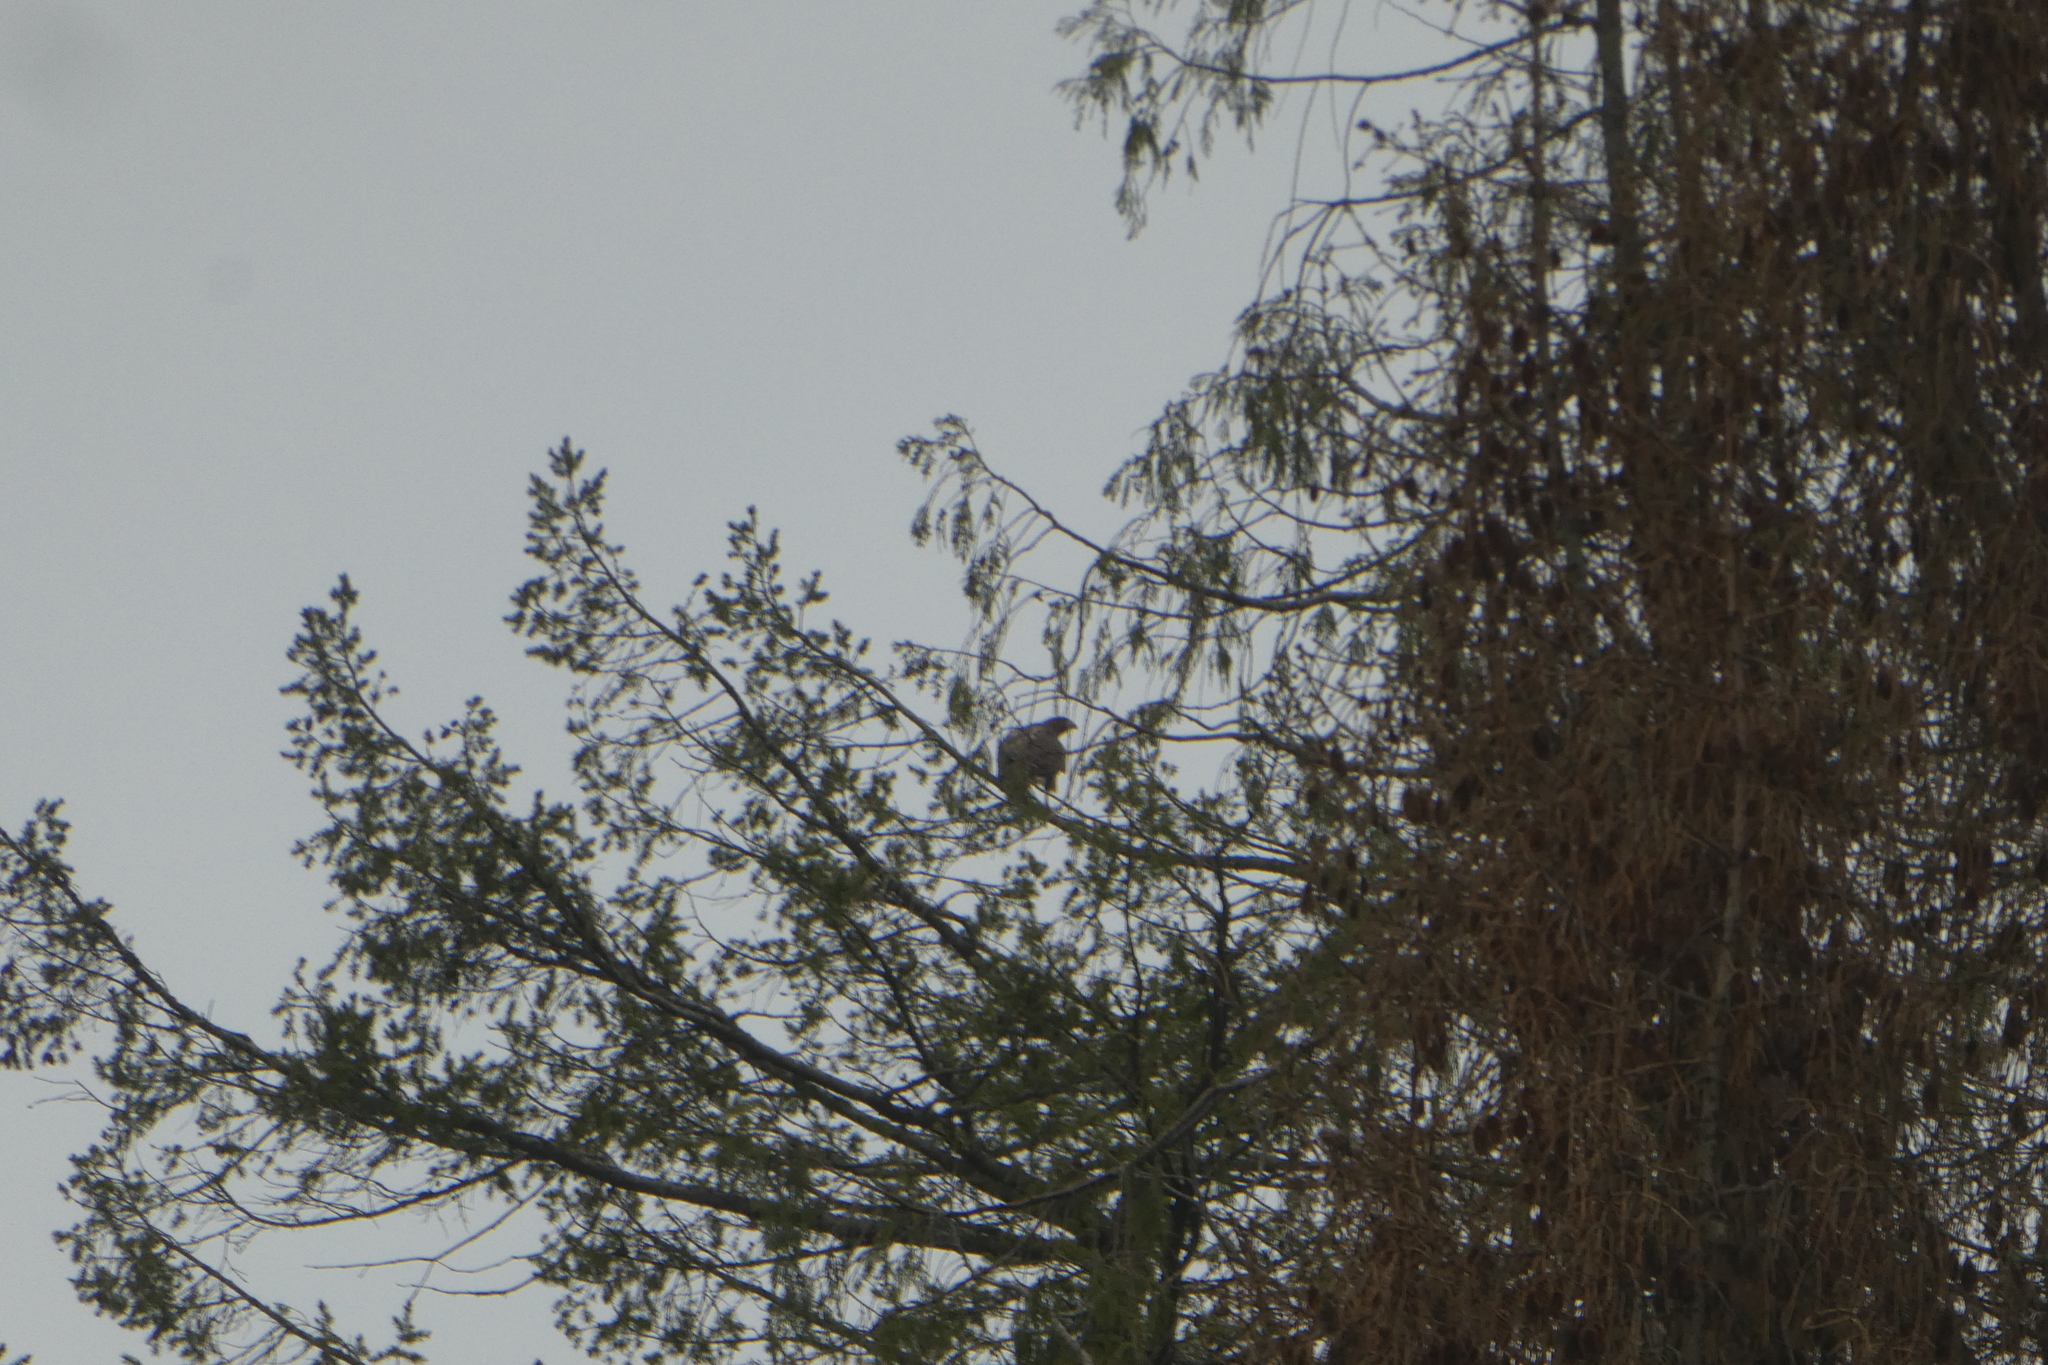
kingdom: Animalia
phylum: Chordata
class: Aves
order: Accipitriformes
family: Accipitridae
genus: Buteo
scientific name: Buteo jamaicensis
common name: Red-tailed hawk
